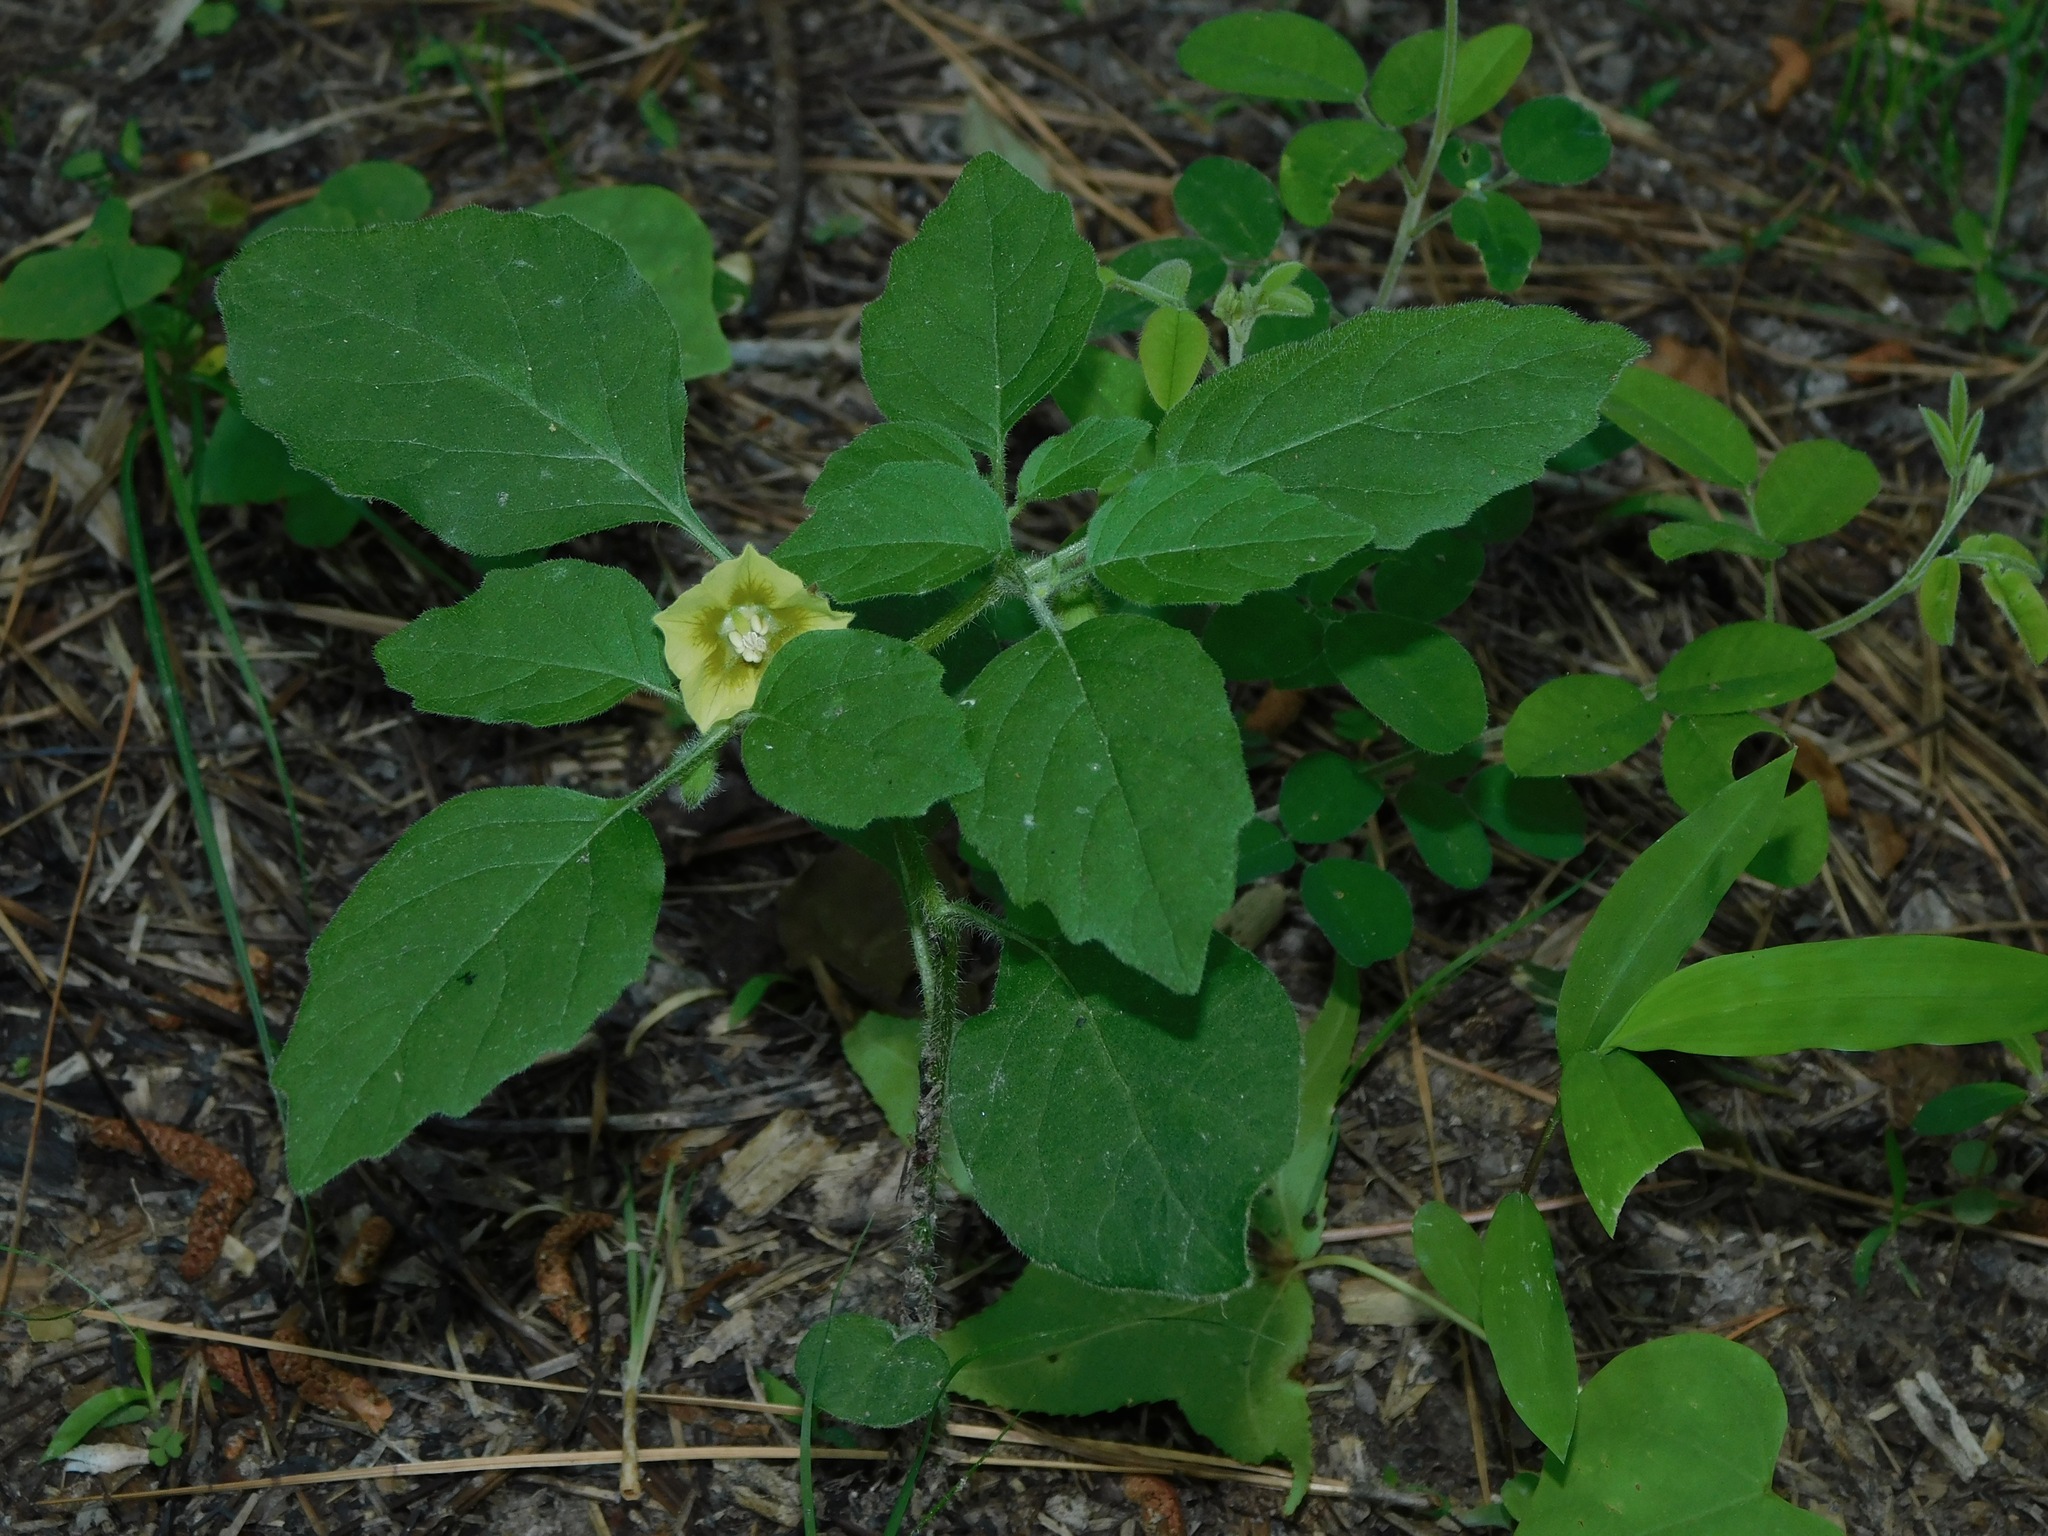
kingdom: Plantae
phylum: Tracheophyta
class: Magnoliopsida
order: Solanales
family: Solanaceae
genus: Physalis
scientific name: Physalis angulata
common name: Angular winter-cherry
